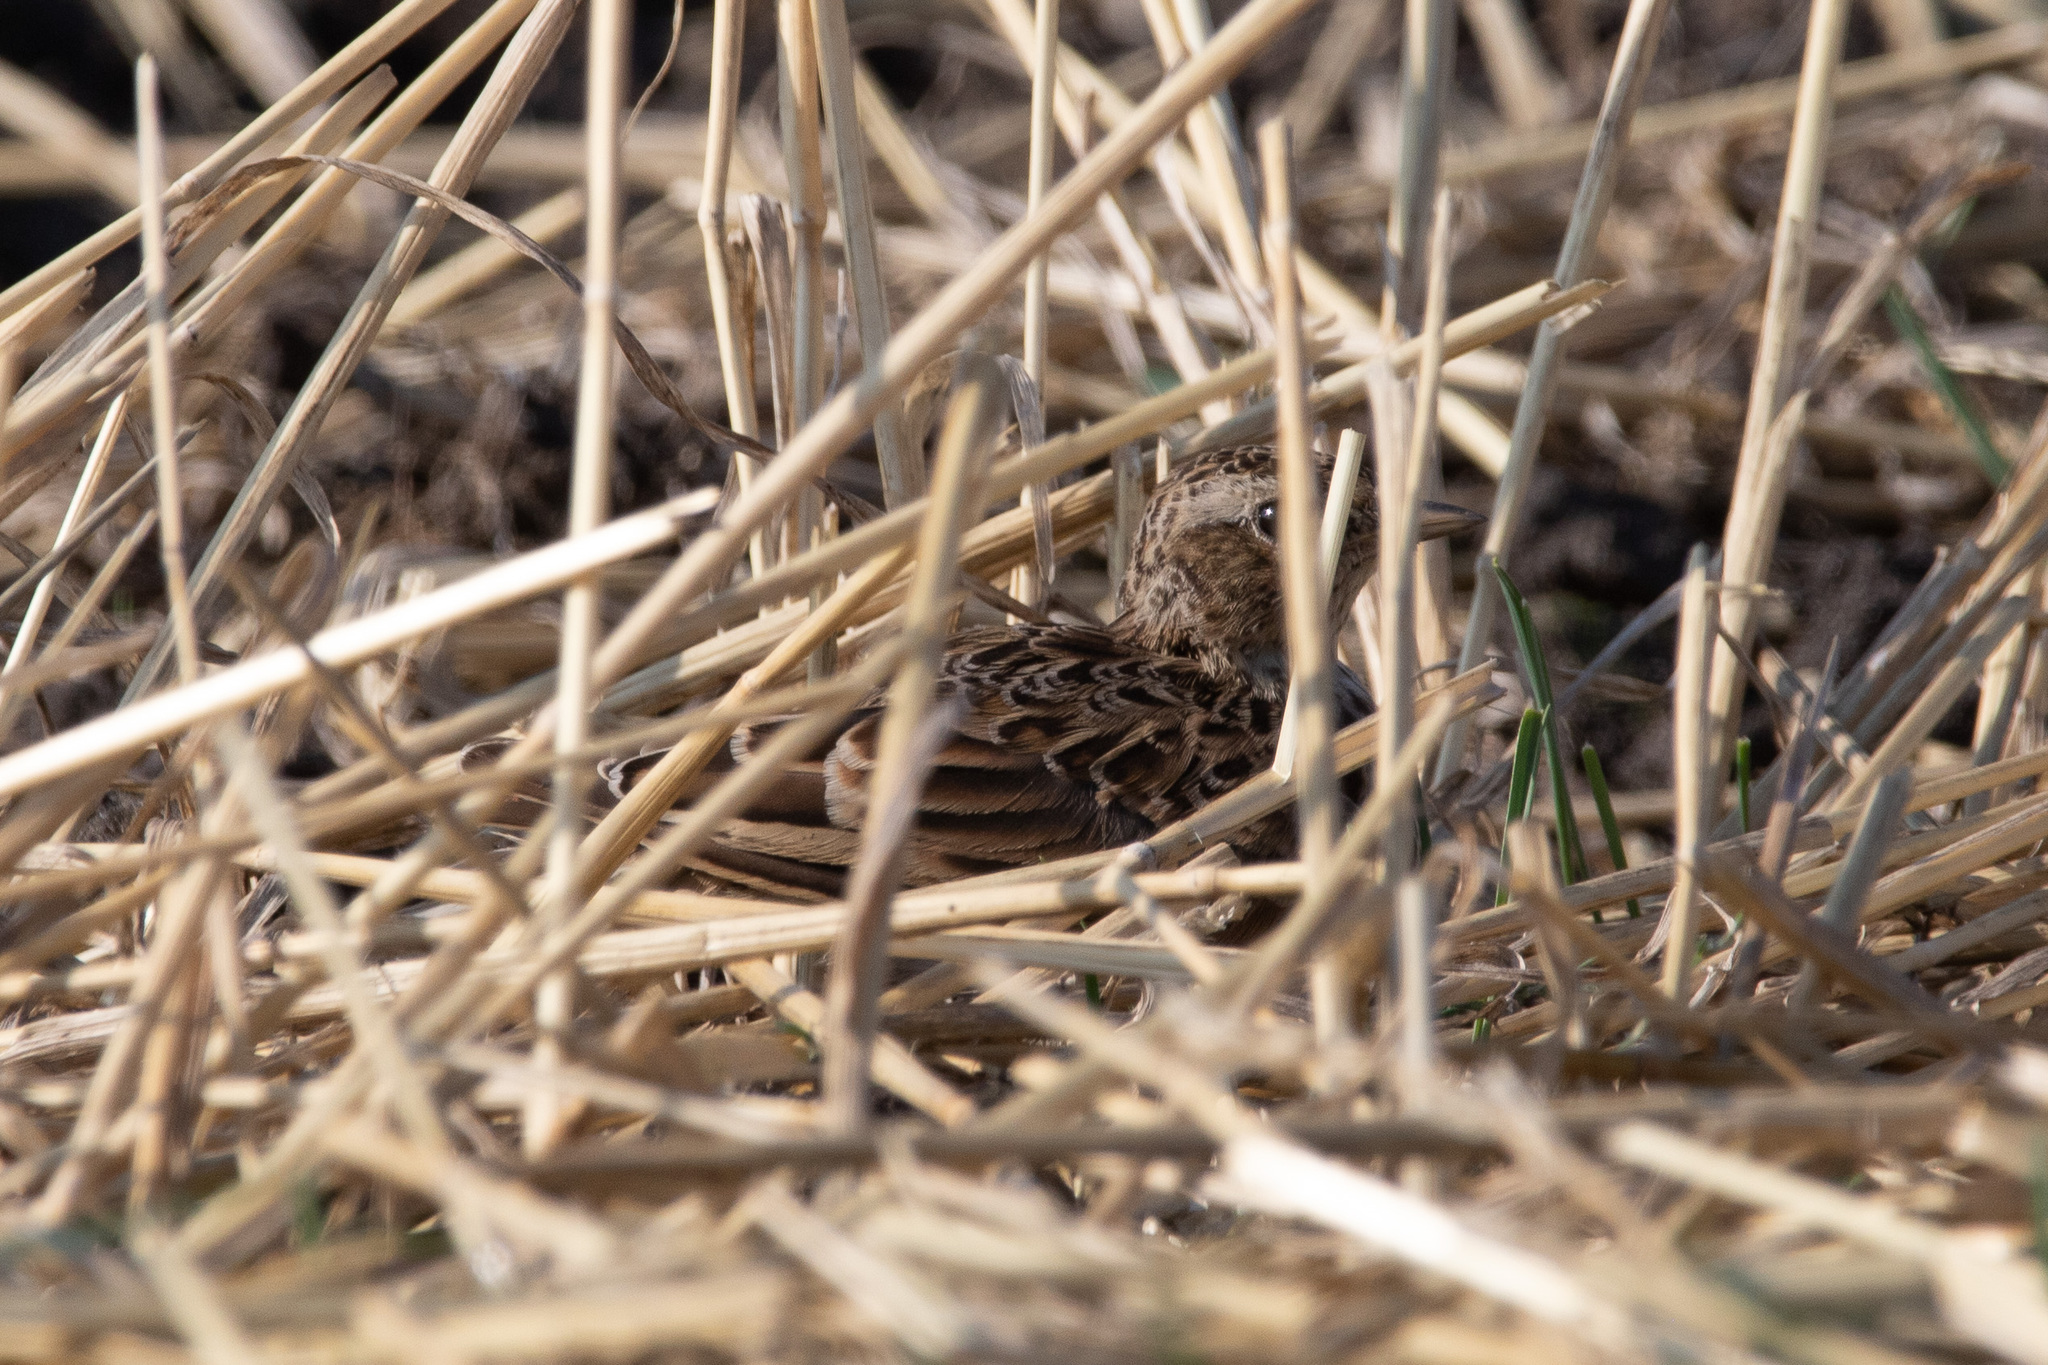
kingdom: Animalia
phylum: Chordata
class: Aves
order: Passeriformes
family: Alaudidae
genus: Alauda
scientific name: Alauda arvensis
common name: Eurasian skylark
